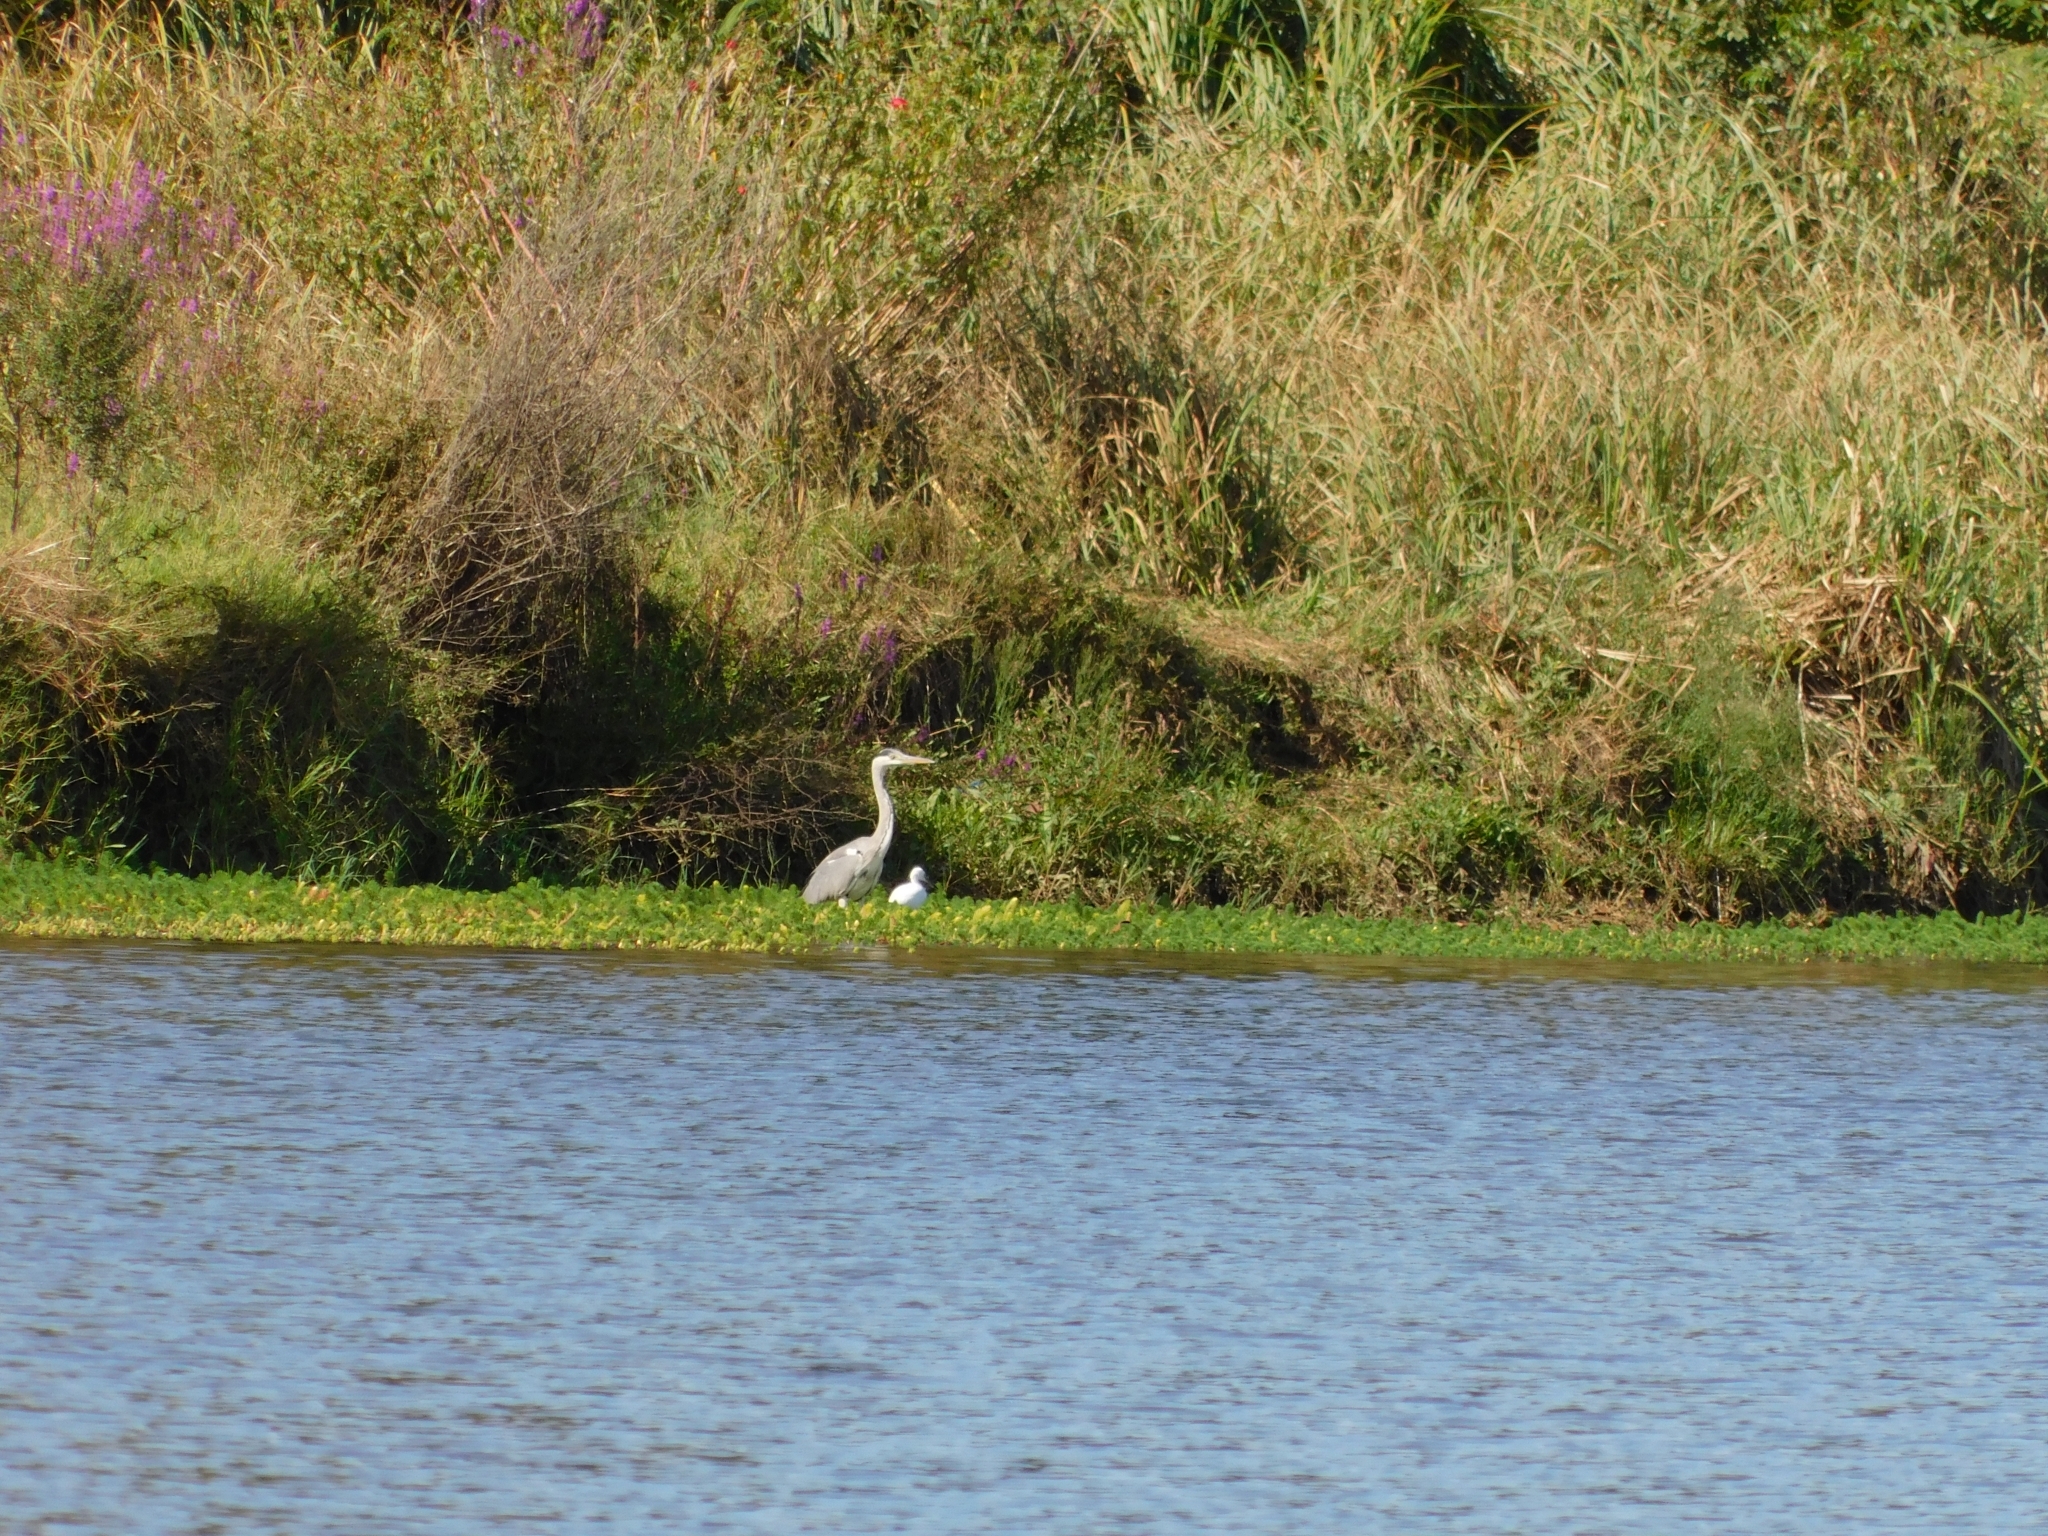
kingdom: Animalia
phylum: Chordata
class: Aves
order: Pelecaniformes
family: Ardeidae
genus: Ardea
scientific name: Ardea cinerea
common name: Grey heron
